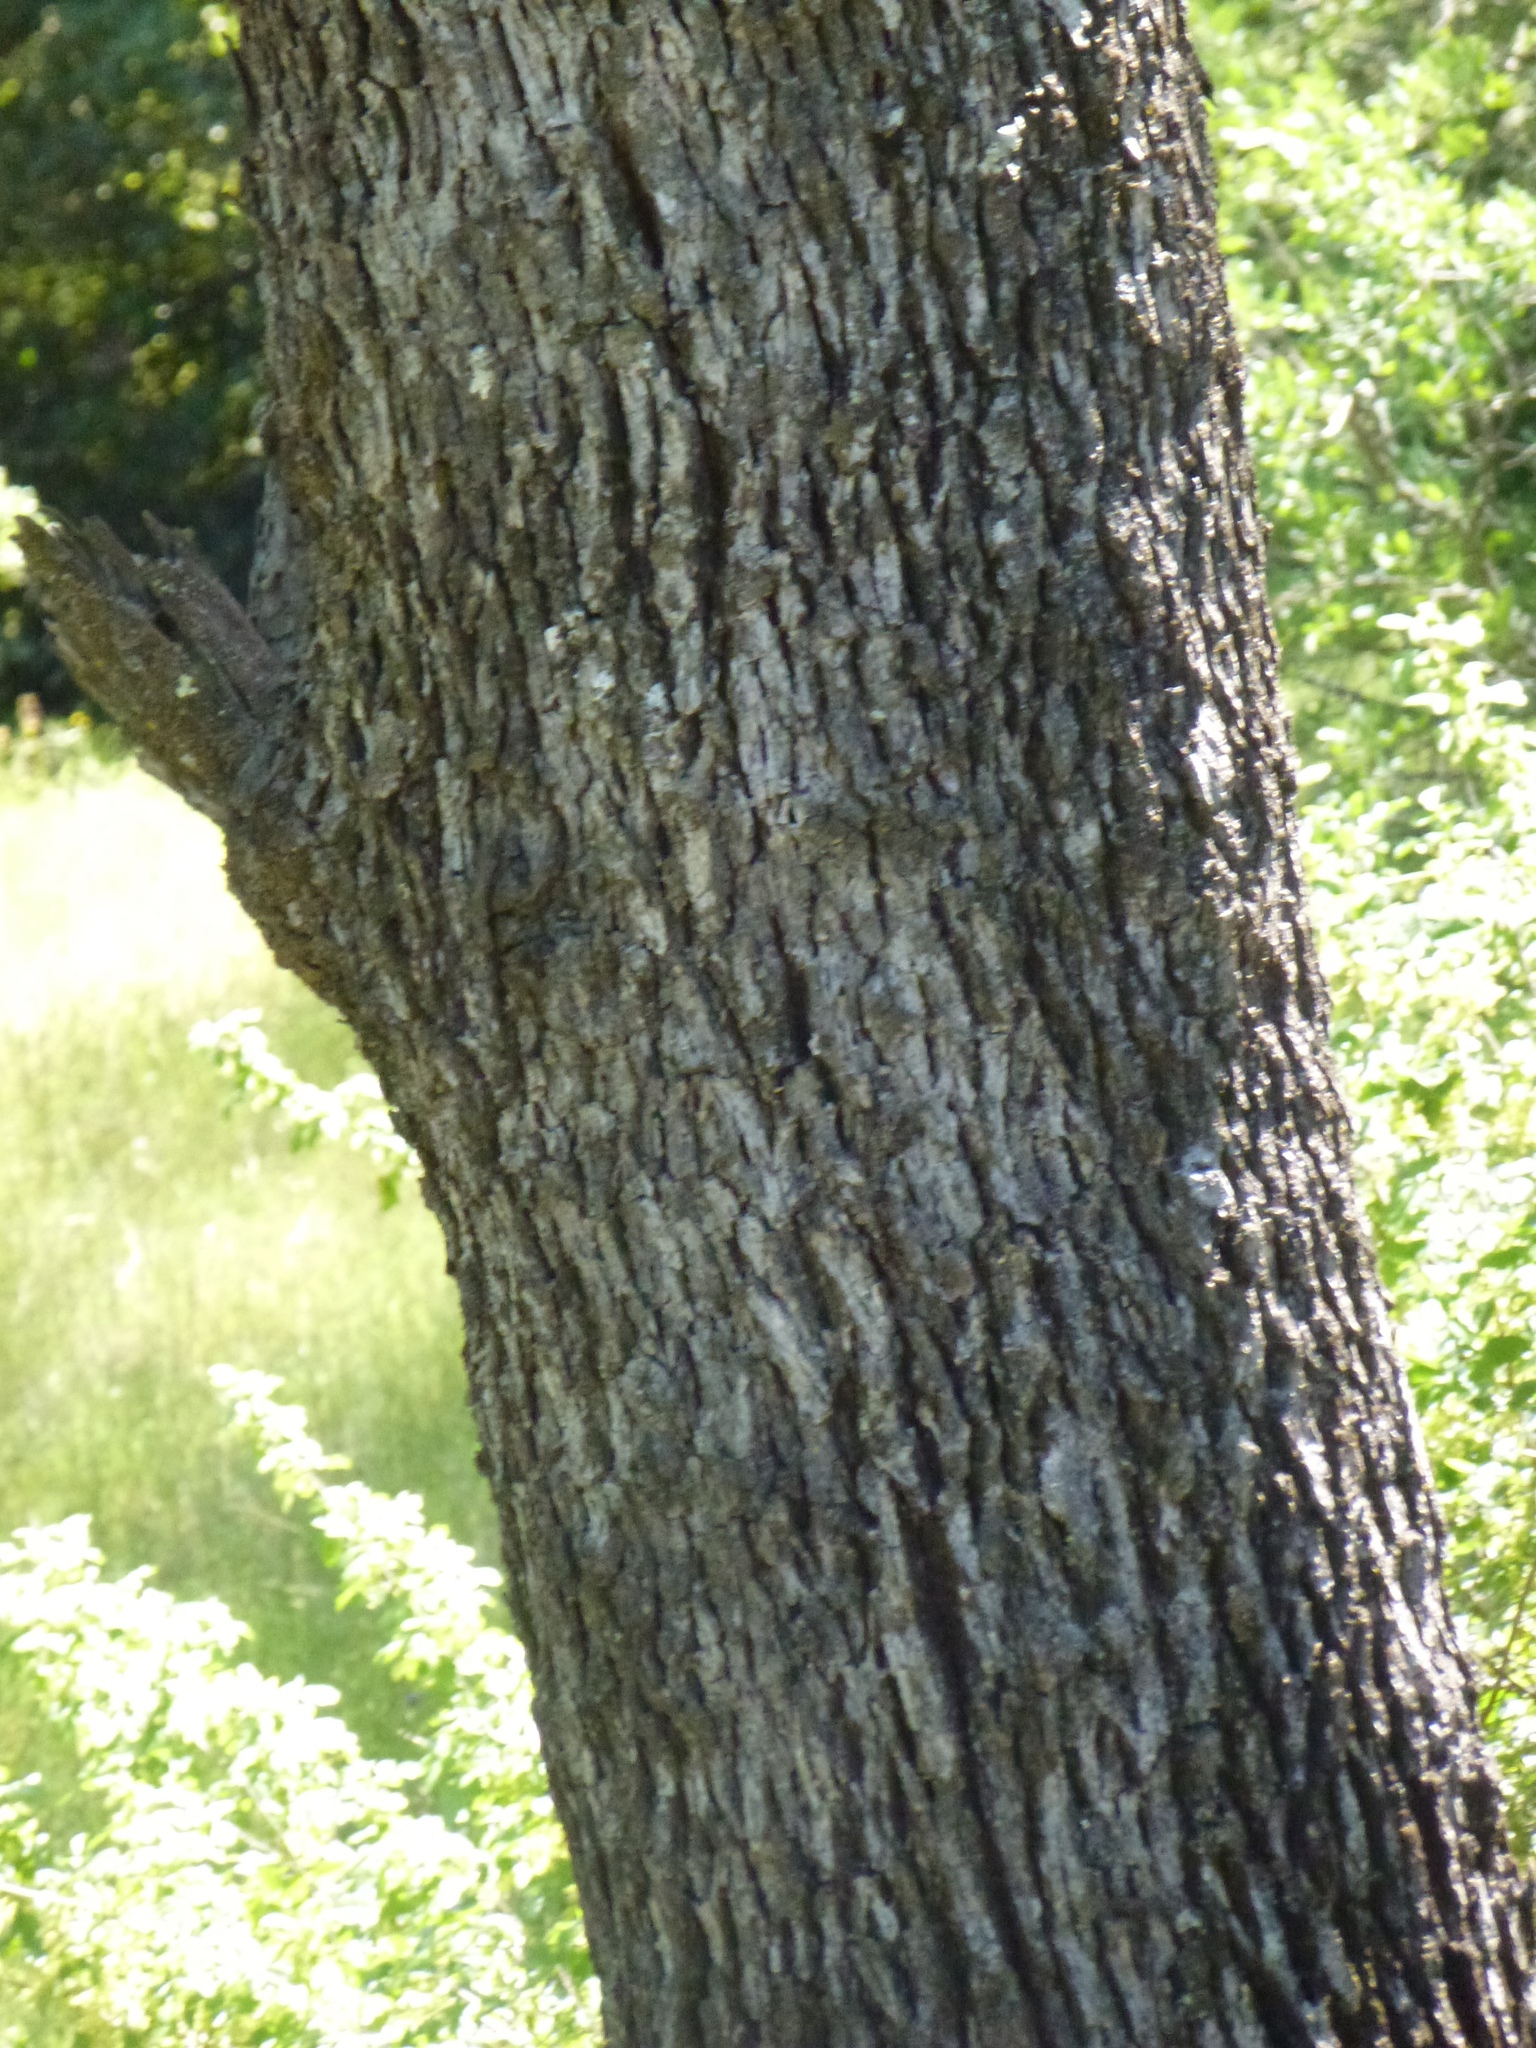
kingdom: Plantae
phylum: Tracheophyta
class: Magnoliopsida
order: Fagales
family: Fagaceae
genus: Quercus
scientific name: Quercus lobata
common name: Valley oak
